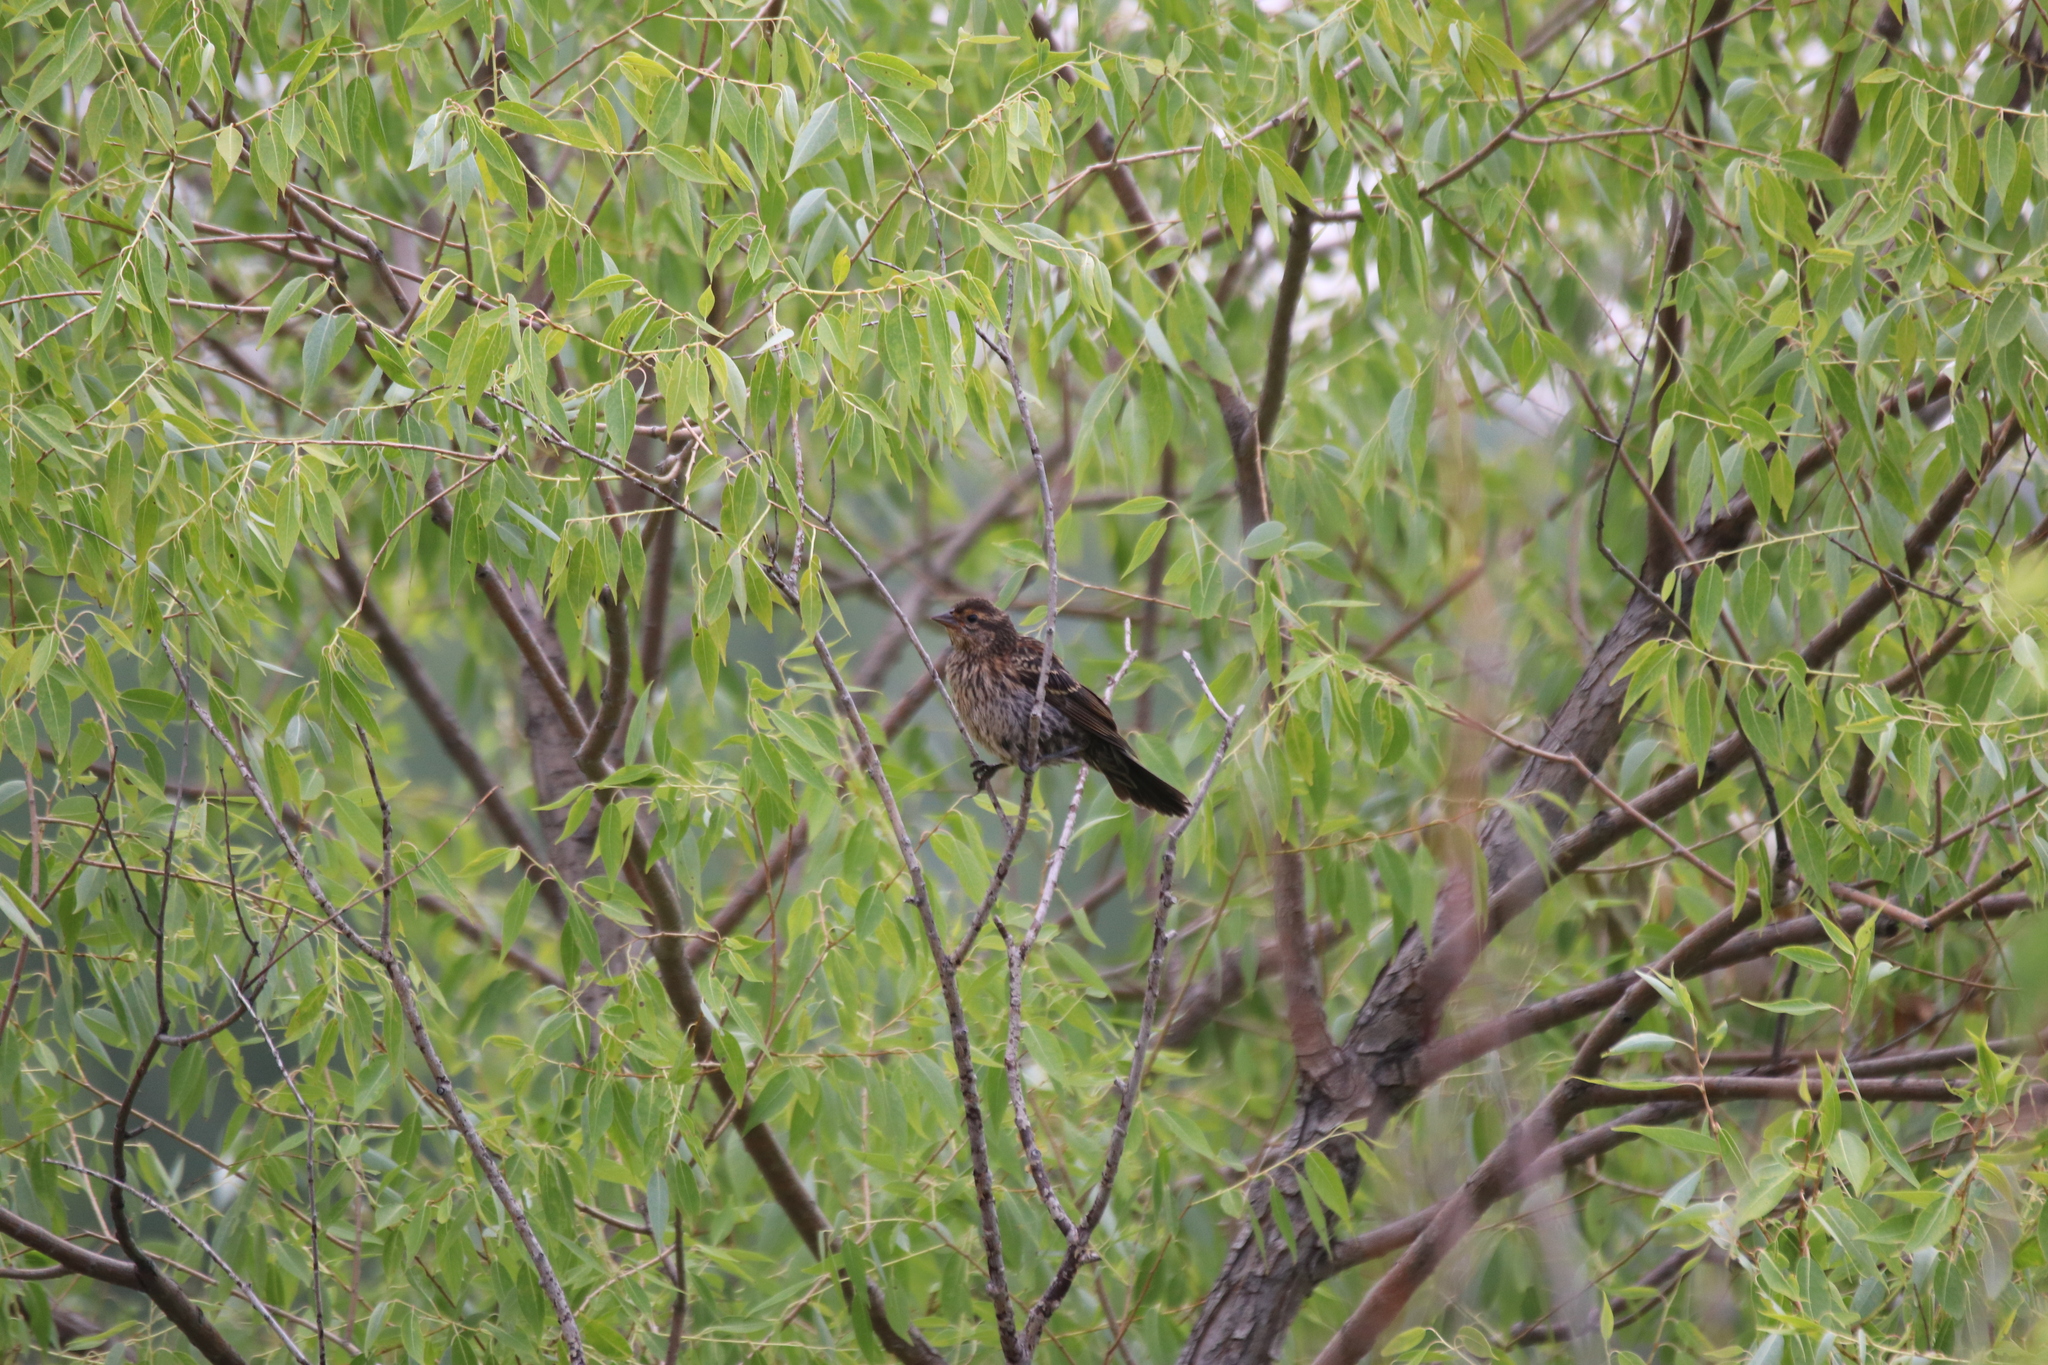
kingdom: Animalia
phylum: Chordata
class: Aves
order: Passeriformes
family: Icteridae
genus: Agelaius
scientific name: Agelaius phoeniceus
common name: Red-winged blackbird
